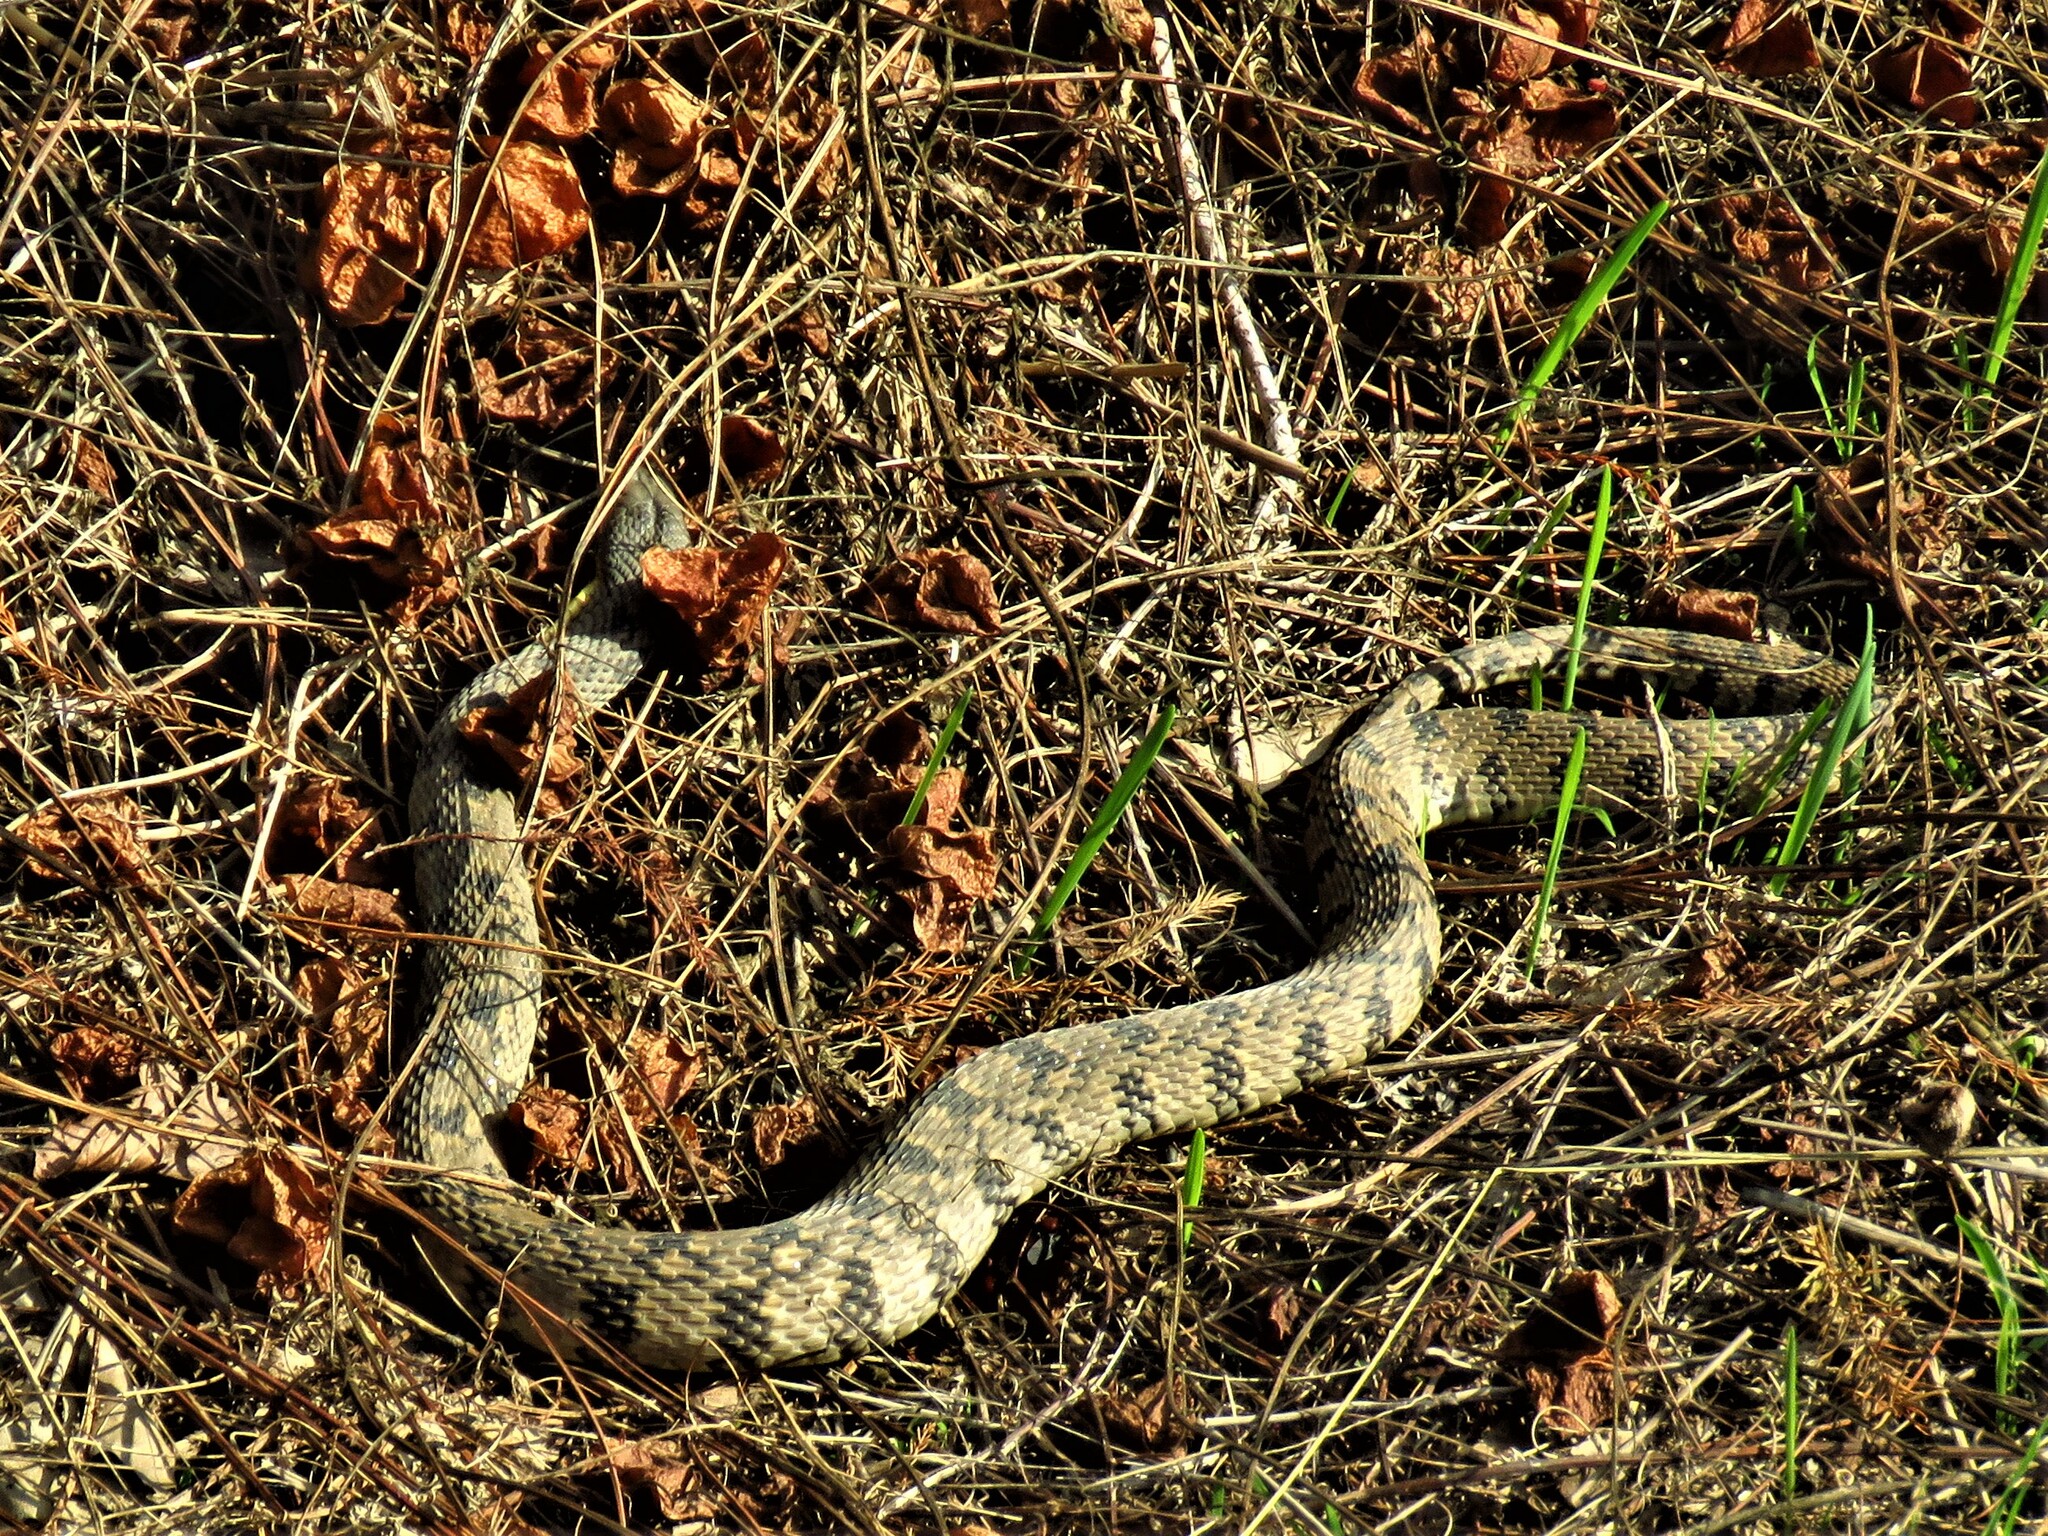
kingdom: Animalia
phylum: Chordata
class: Squamata
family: Colubridae
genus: Nerodia
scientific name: Nerodia rhombifer
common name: Diamondback water snake
